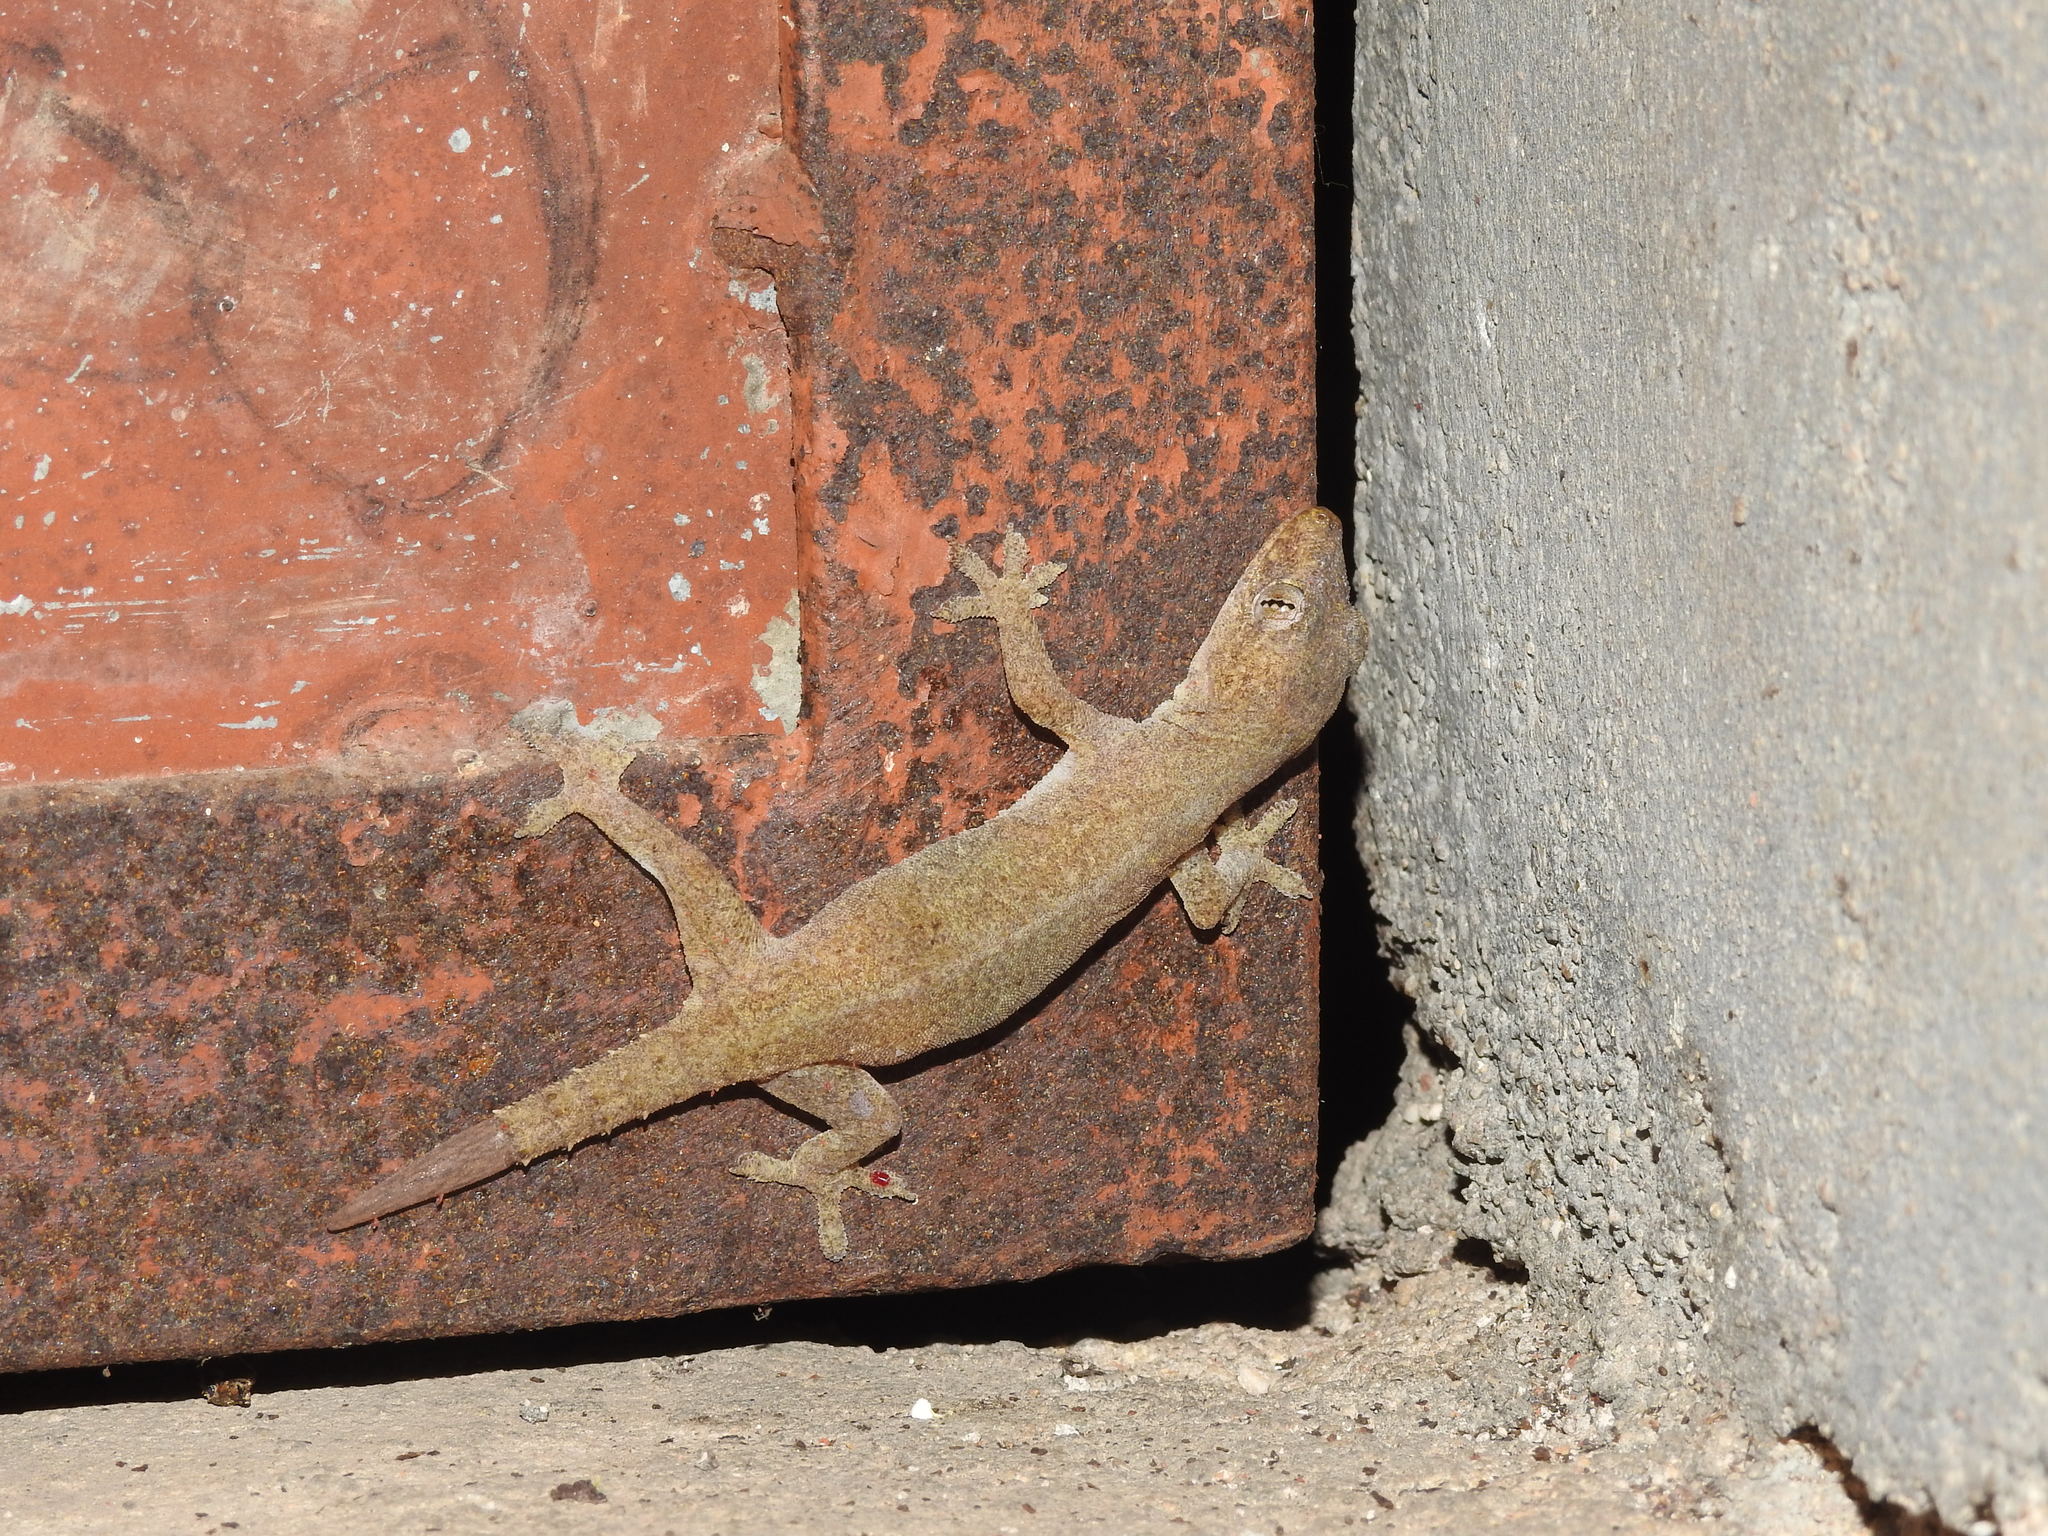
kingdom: Animalia
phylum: Chordata
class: Squamata
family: Gekkonidae
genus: Hemidactylus
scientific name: Hemidactylus frenatus
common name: Common house gecko
